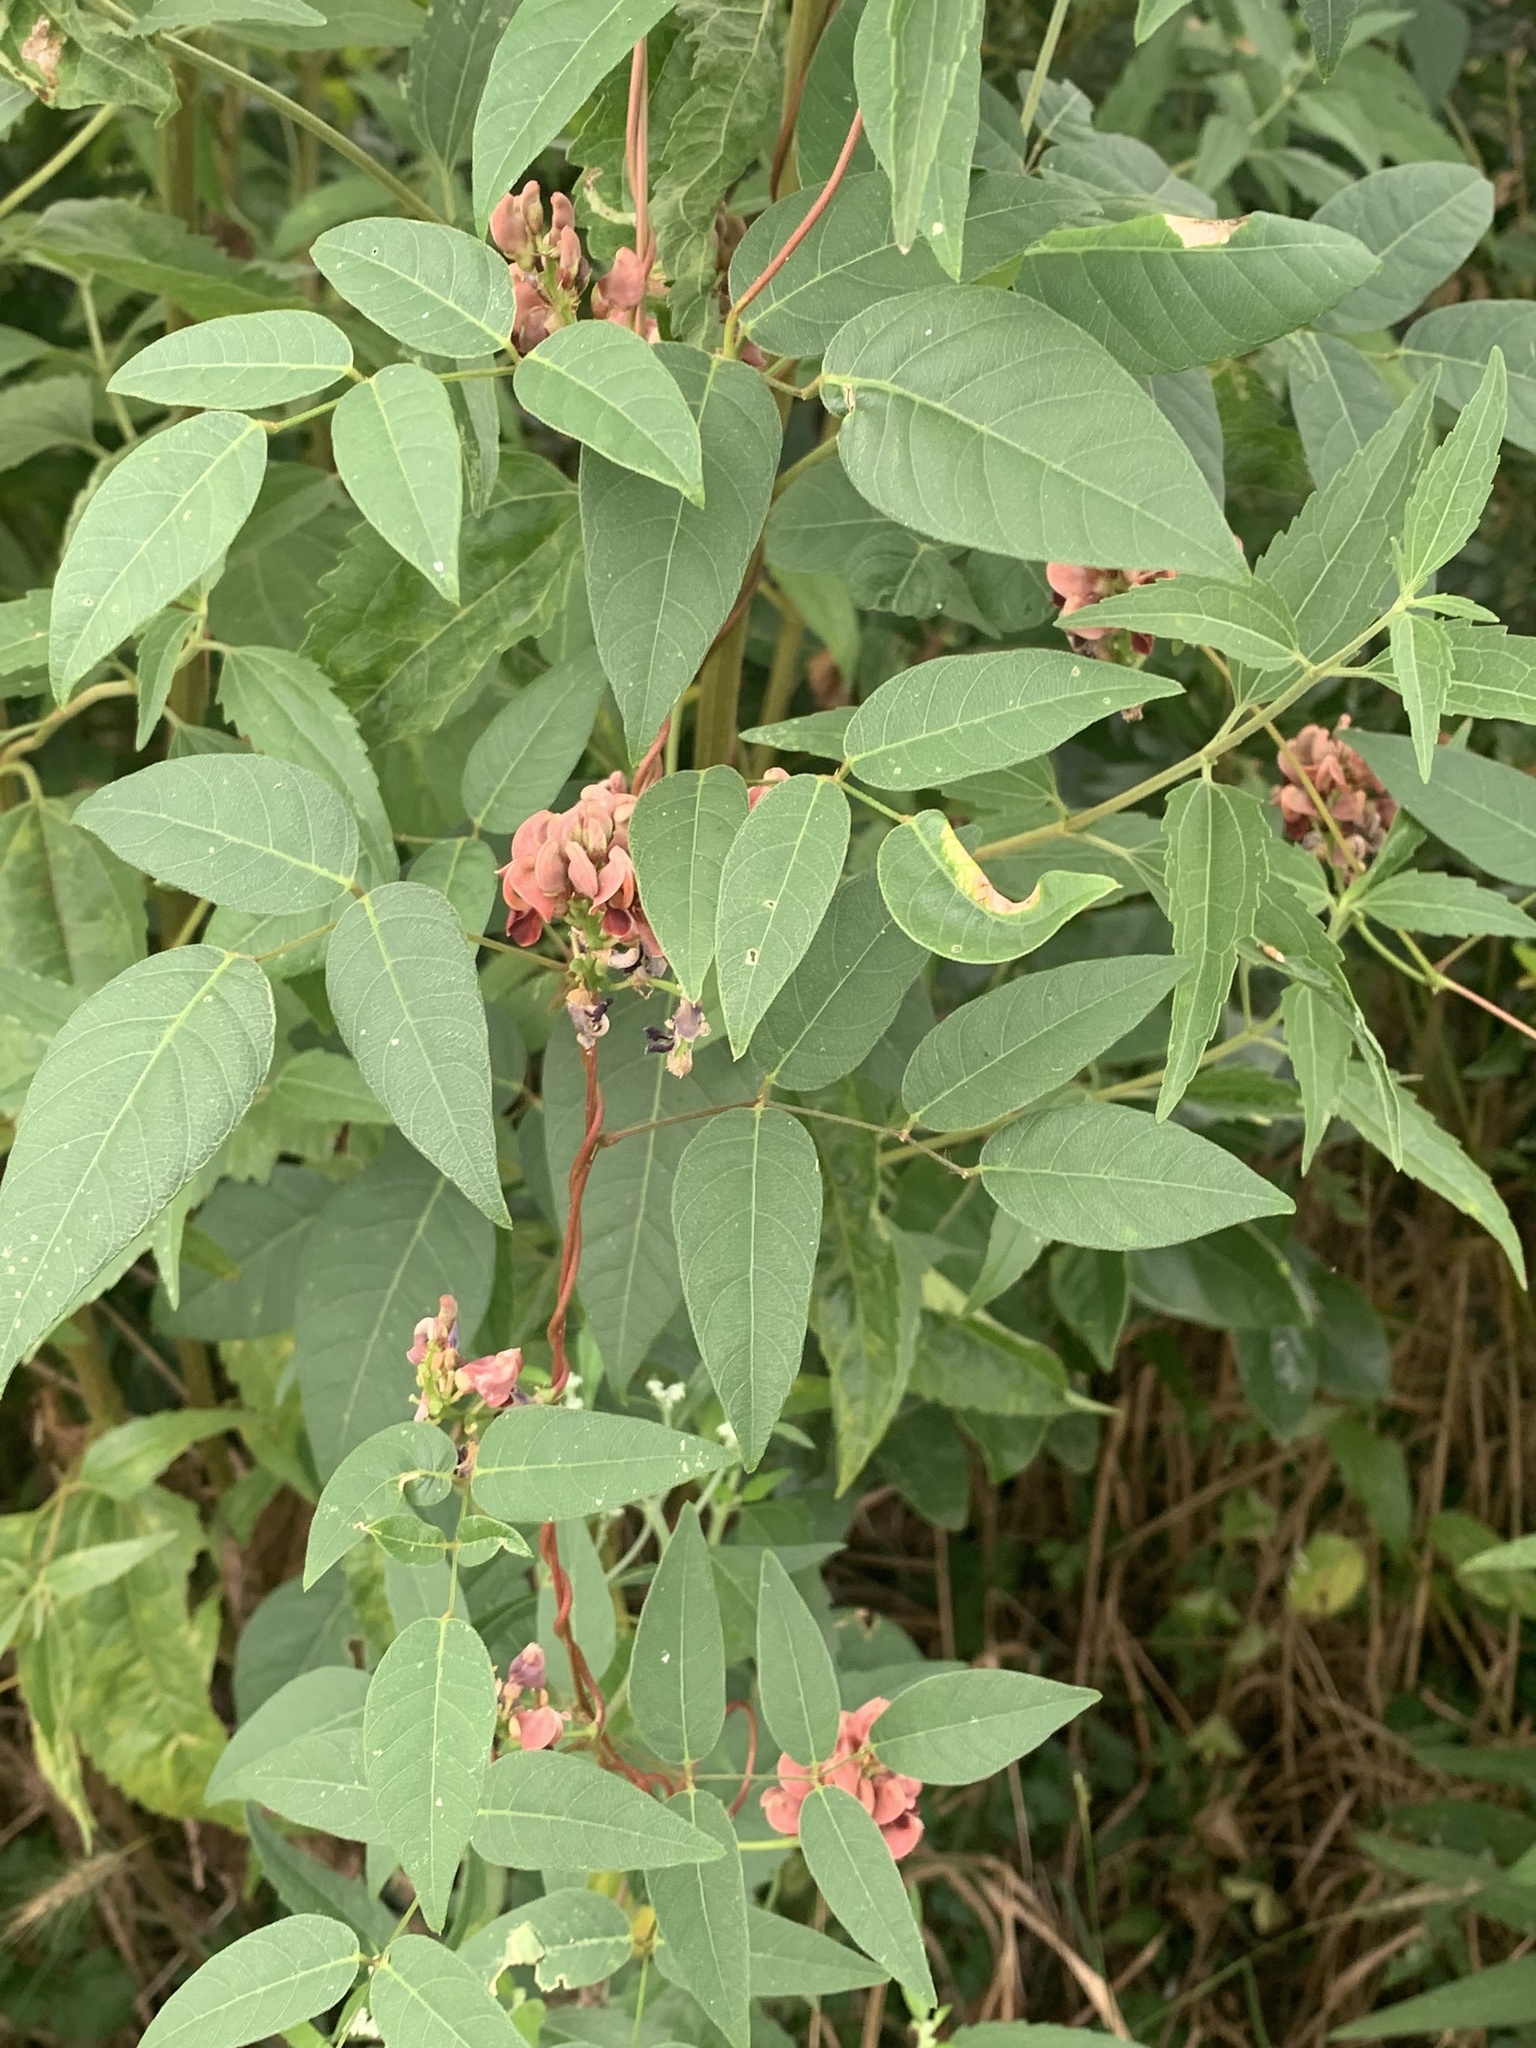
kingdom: Plantae
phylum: Tracheophyta
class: Magnoliopsida
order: Fabales
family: Fabaceae
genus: Apios
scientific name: Apios americana
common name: American potato-bean
